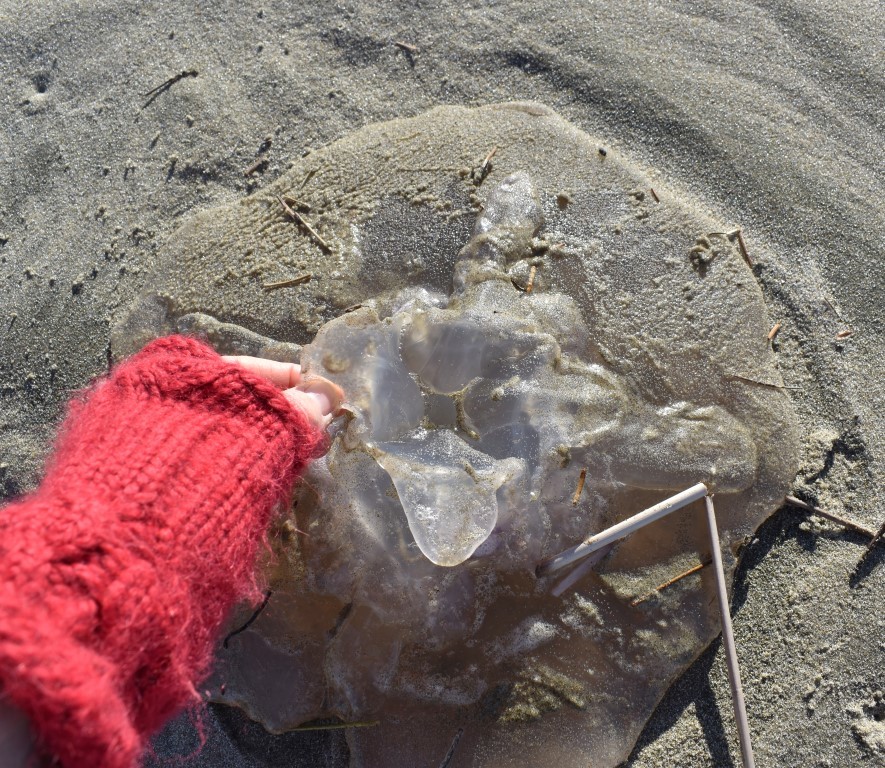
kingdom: Animalia
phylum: Cnidaria
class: Scyphozoa
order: Semaeostomeae
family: Ulmaridae
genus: Aurelia
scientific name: Aurelia labiata
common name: Pacific moon jelly
